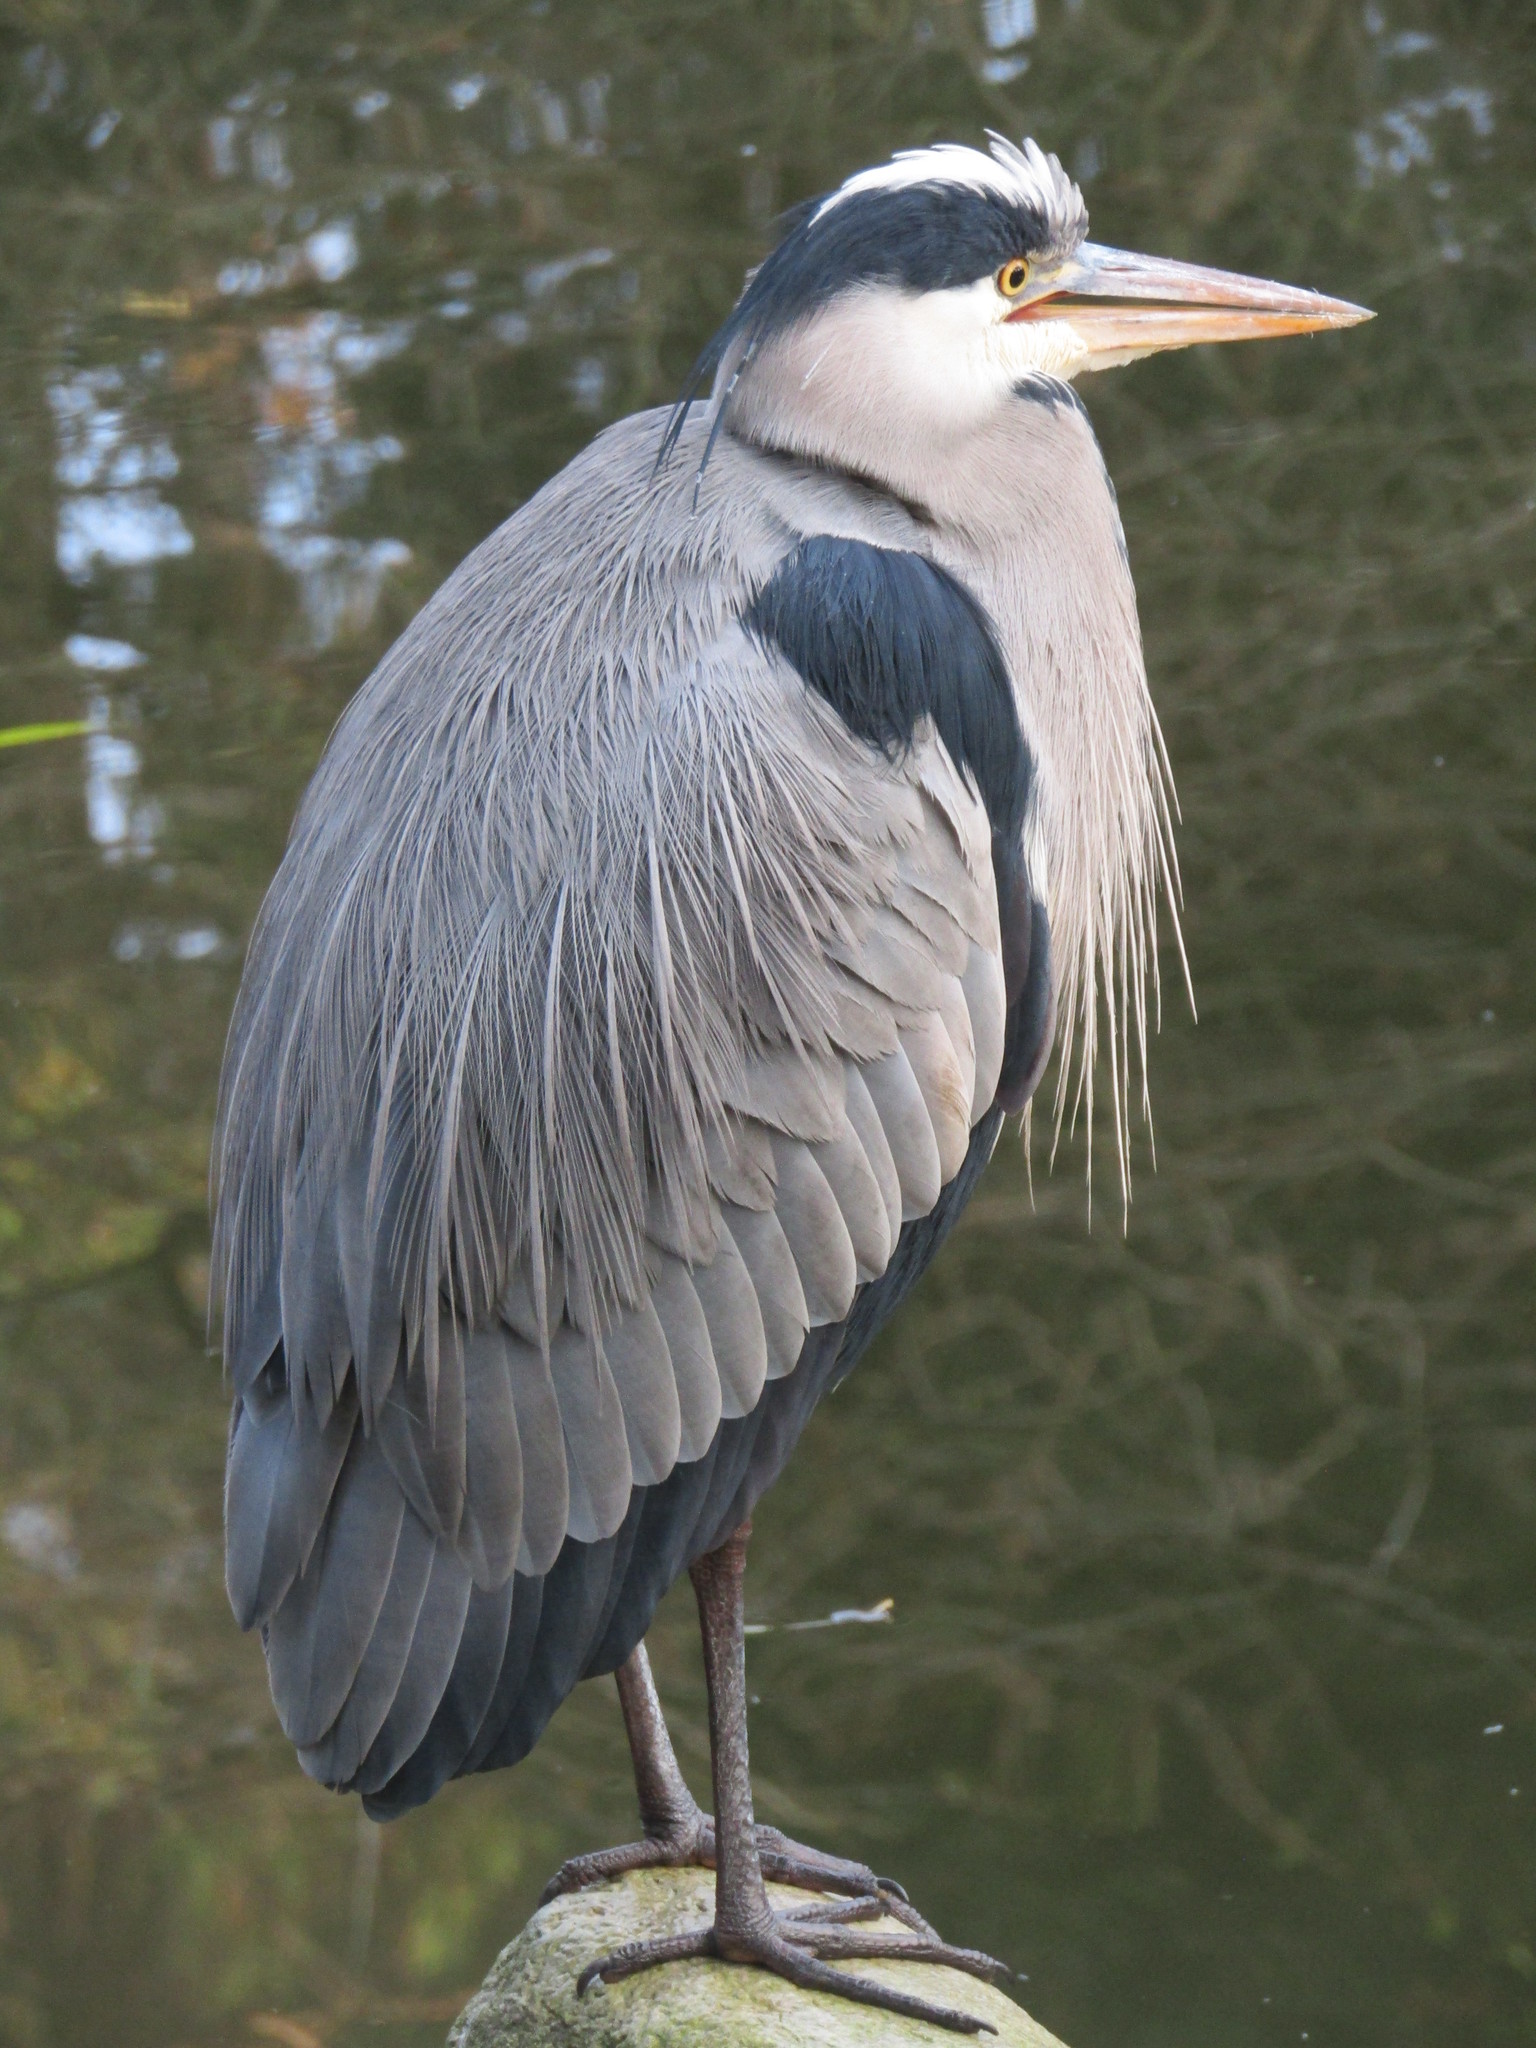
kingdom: Animalia
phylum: Chordata
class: Aves
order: Pelecaniformes
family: Ardeidae
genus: Ardea
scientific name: Ardea cinerea
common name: Grey heron
